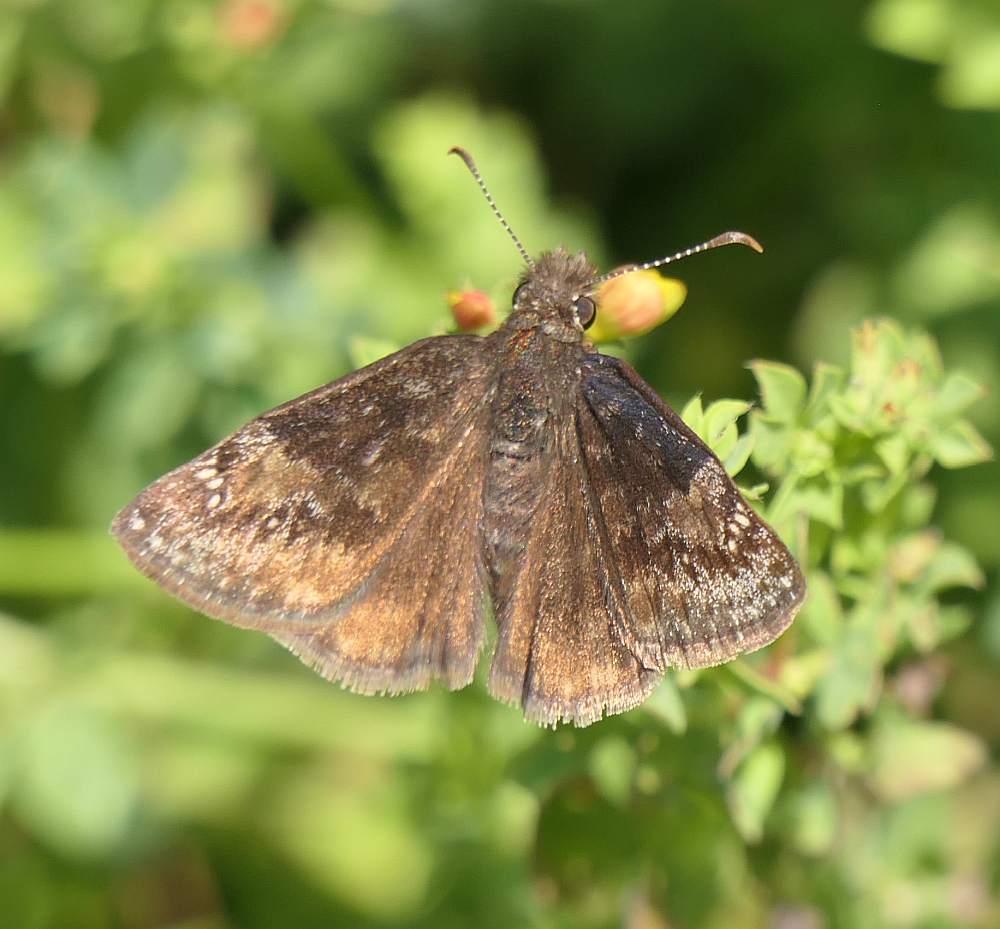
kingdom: Animalia
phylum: Arthropoda
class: Insecta
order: Lepidoptera
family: Hesperiidae
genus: Erynnis
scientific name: Erynnis baptisiae
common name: Wild indigo duskywing
